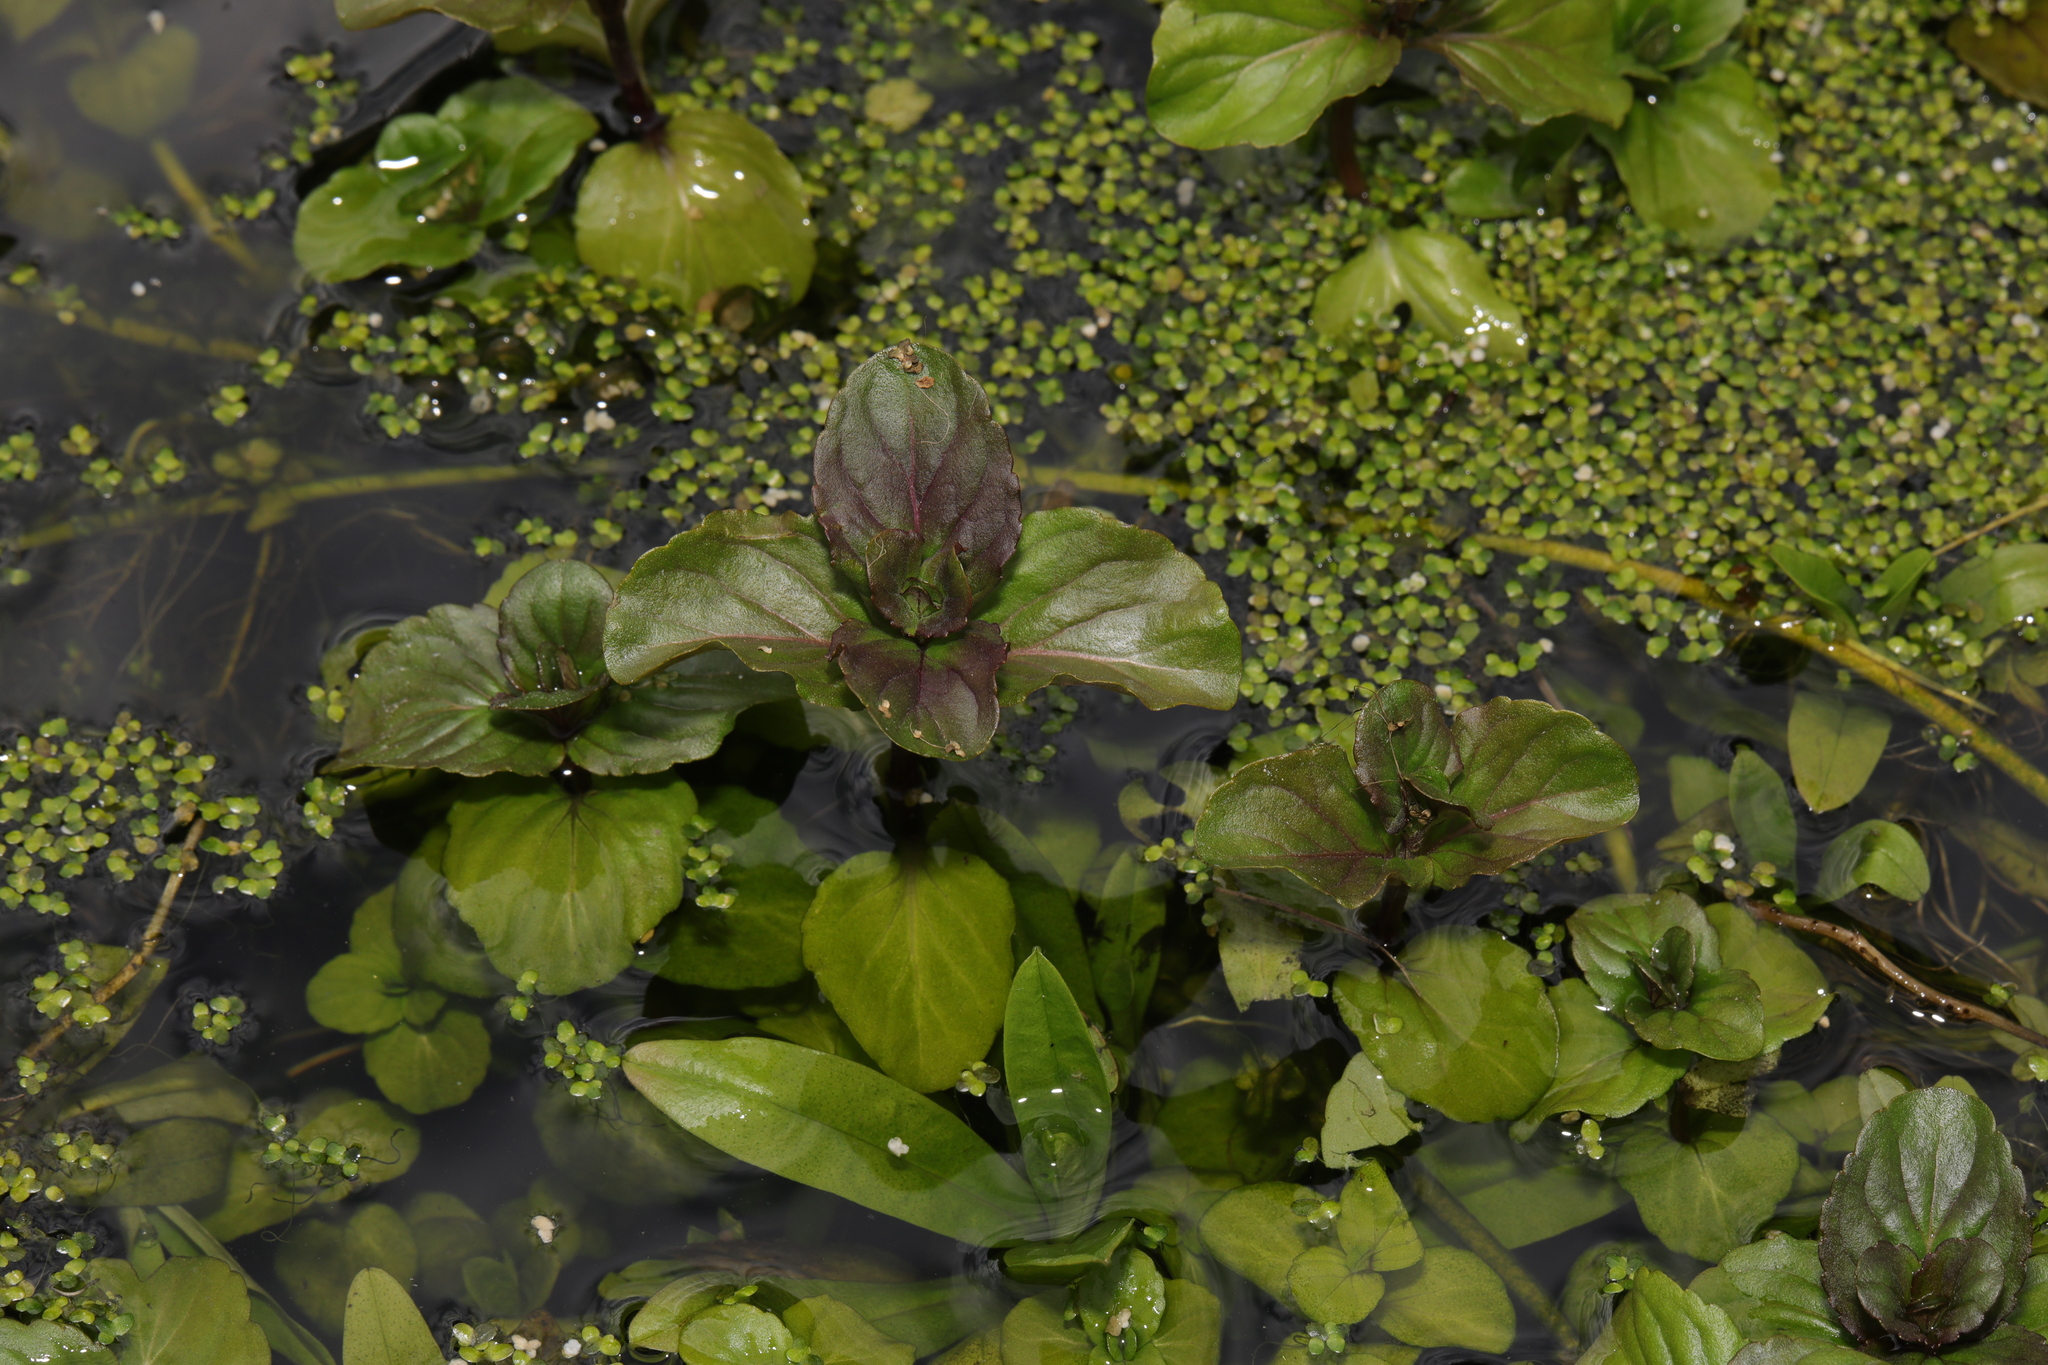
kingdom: Plantae
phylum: Tracheophyta
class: Magnoliopsida
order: Lamiales
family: Lamiaceae
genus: Mentha
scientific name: Mentha aquatica
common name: Water mint
